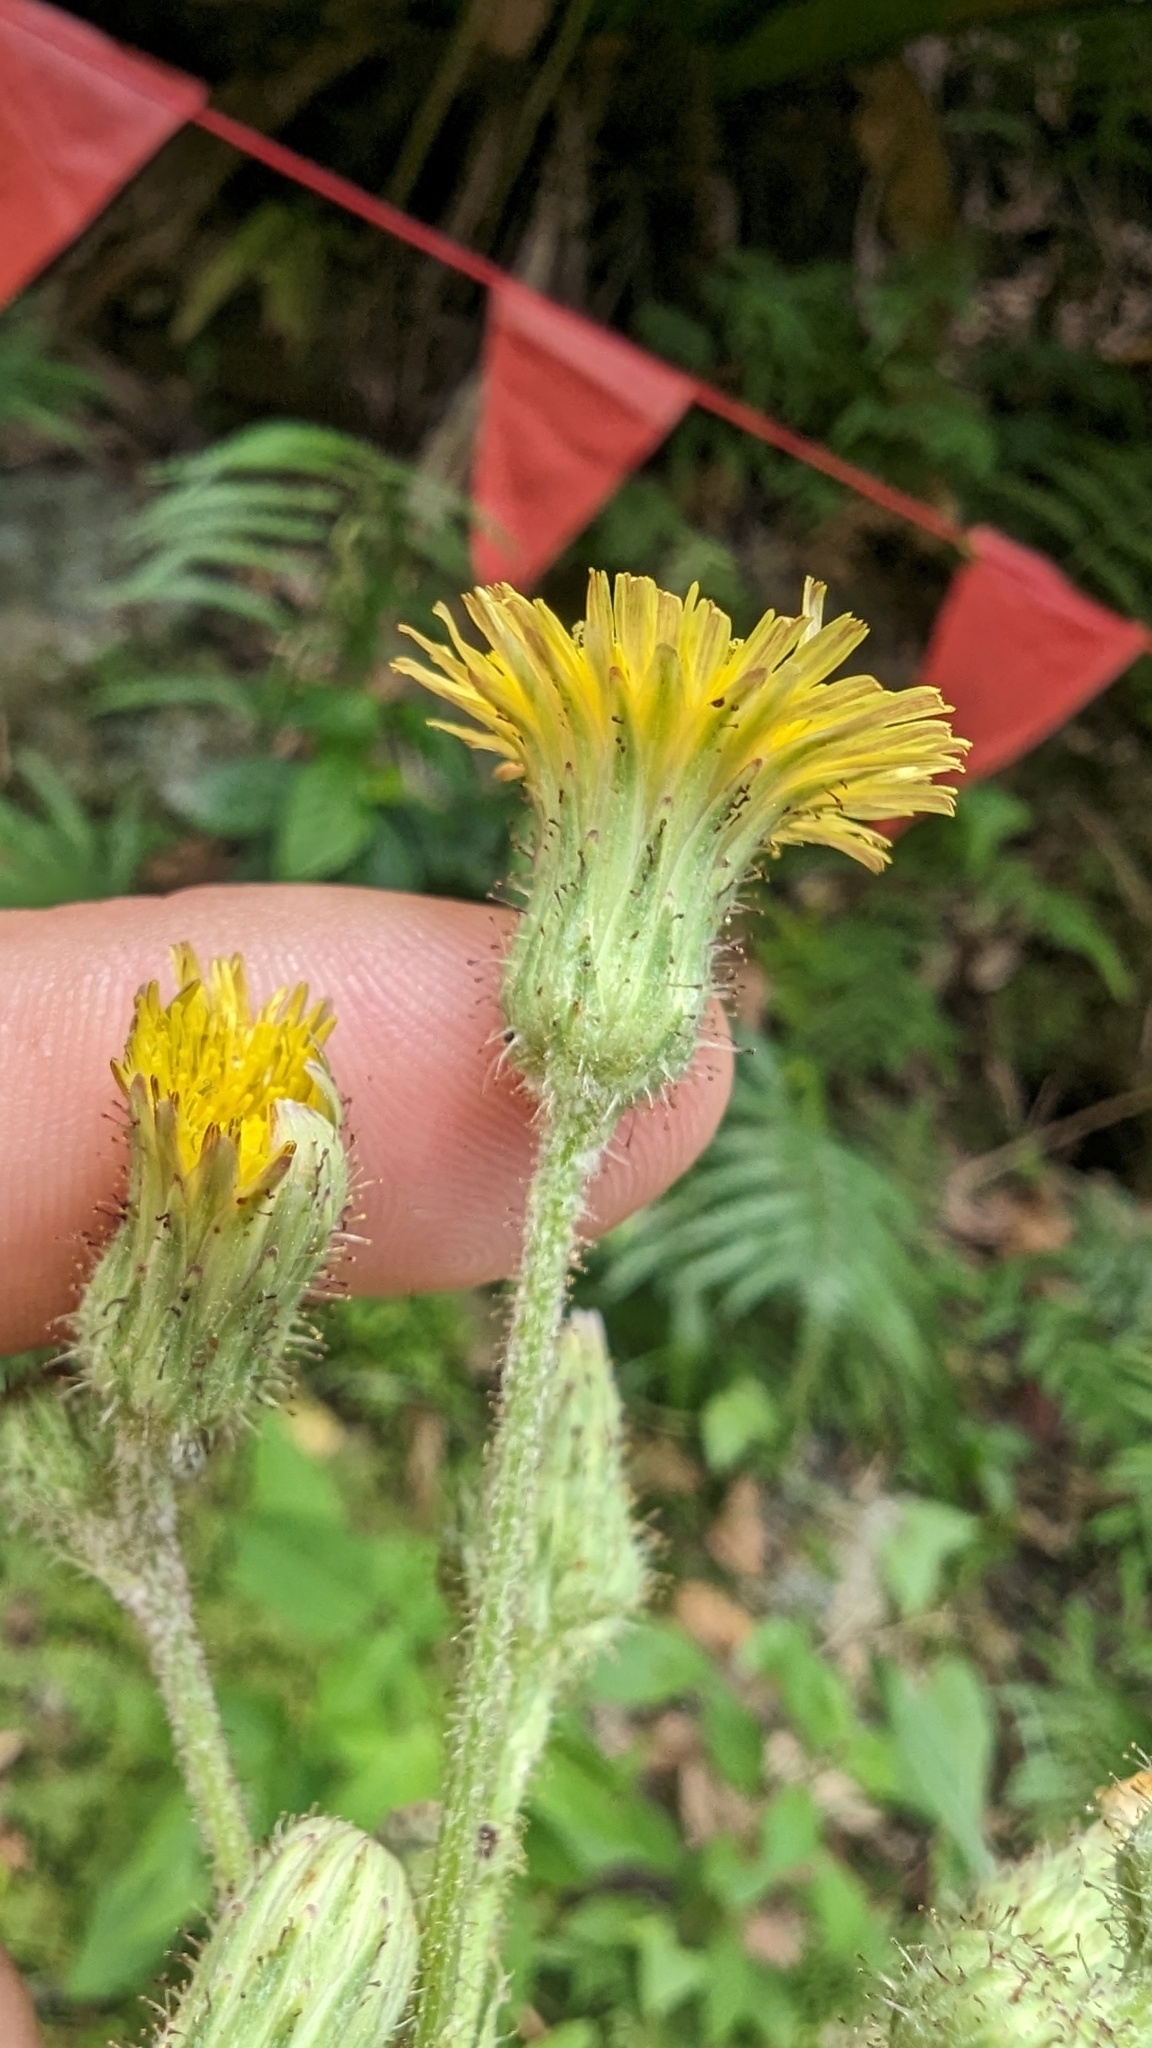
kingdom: Plantae
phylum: Tracheophyta
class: Magnoliopsida
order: Asterales
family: Asteraceae
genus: Sonchus
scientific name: Sonchus arvensis
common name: Perennial sow-thistle
